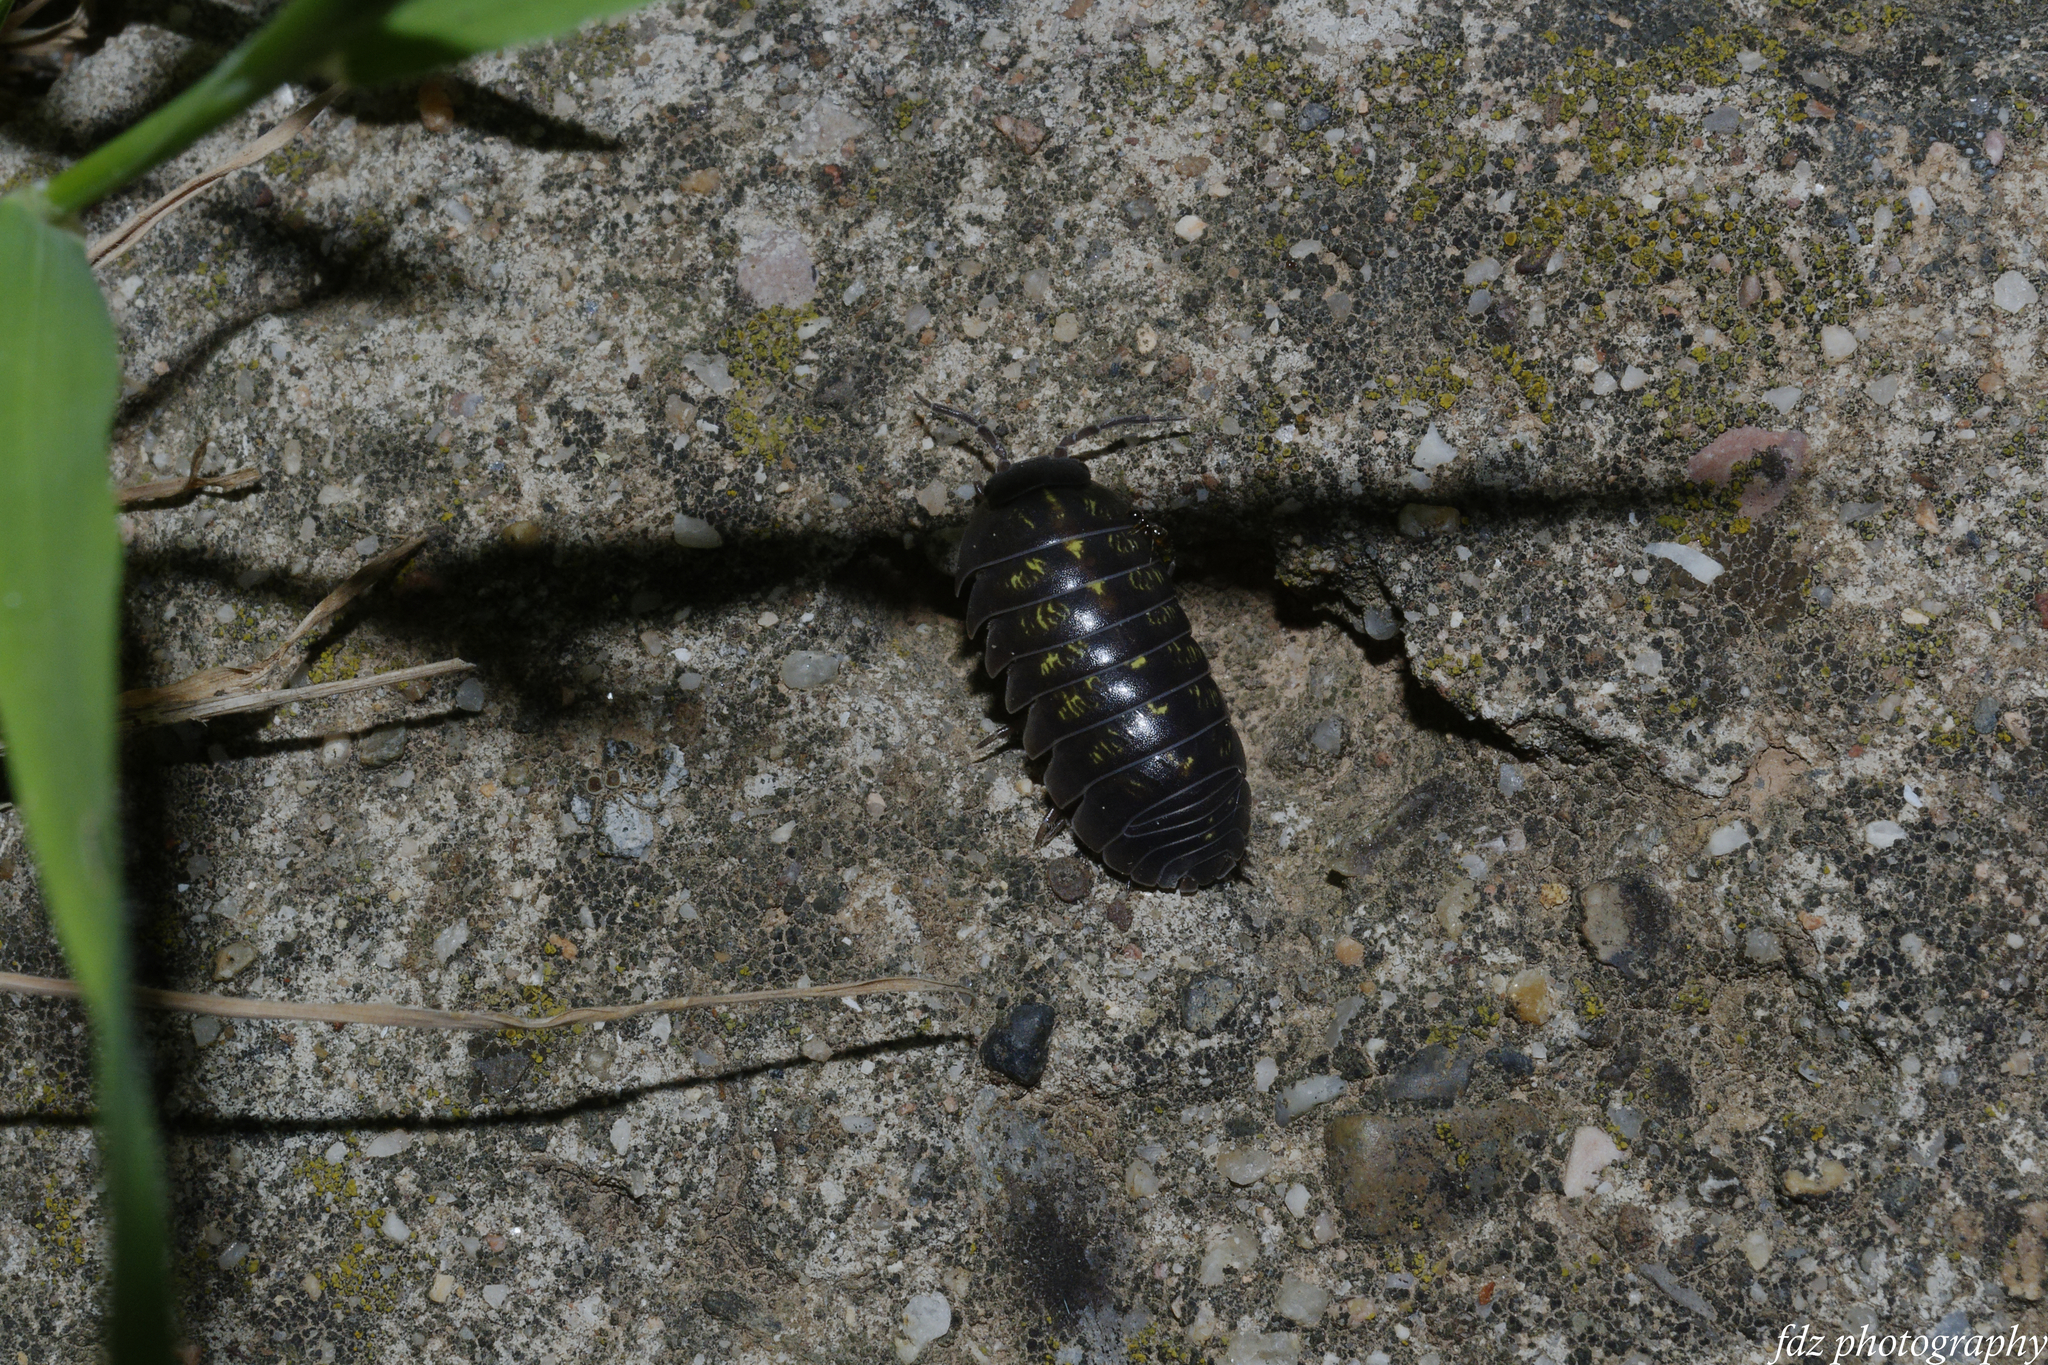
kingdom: Animalia
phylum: Arthropoda
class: Malacostraca
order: Isopoda
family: Armadillidiidae
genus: Armadillidium
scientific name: Armadillidium vulgare
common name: Common pill woodlouse
